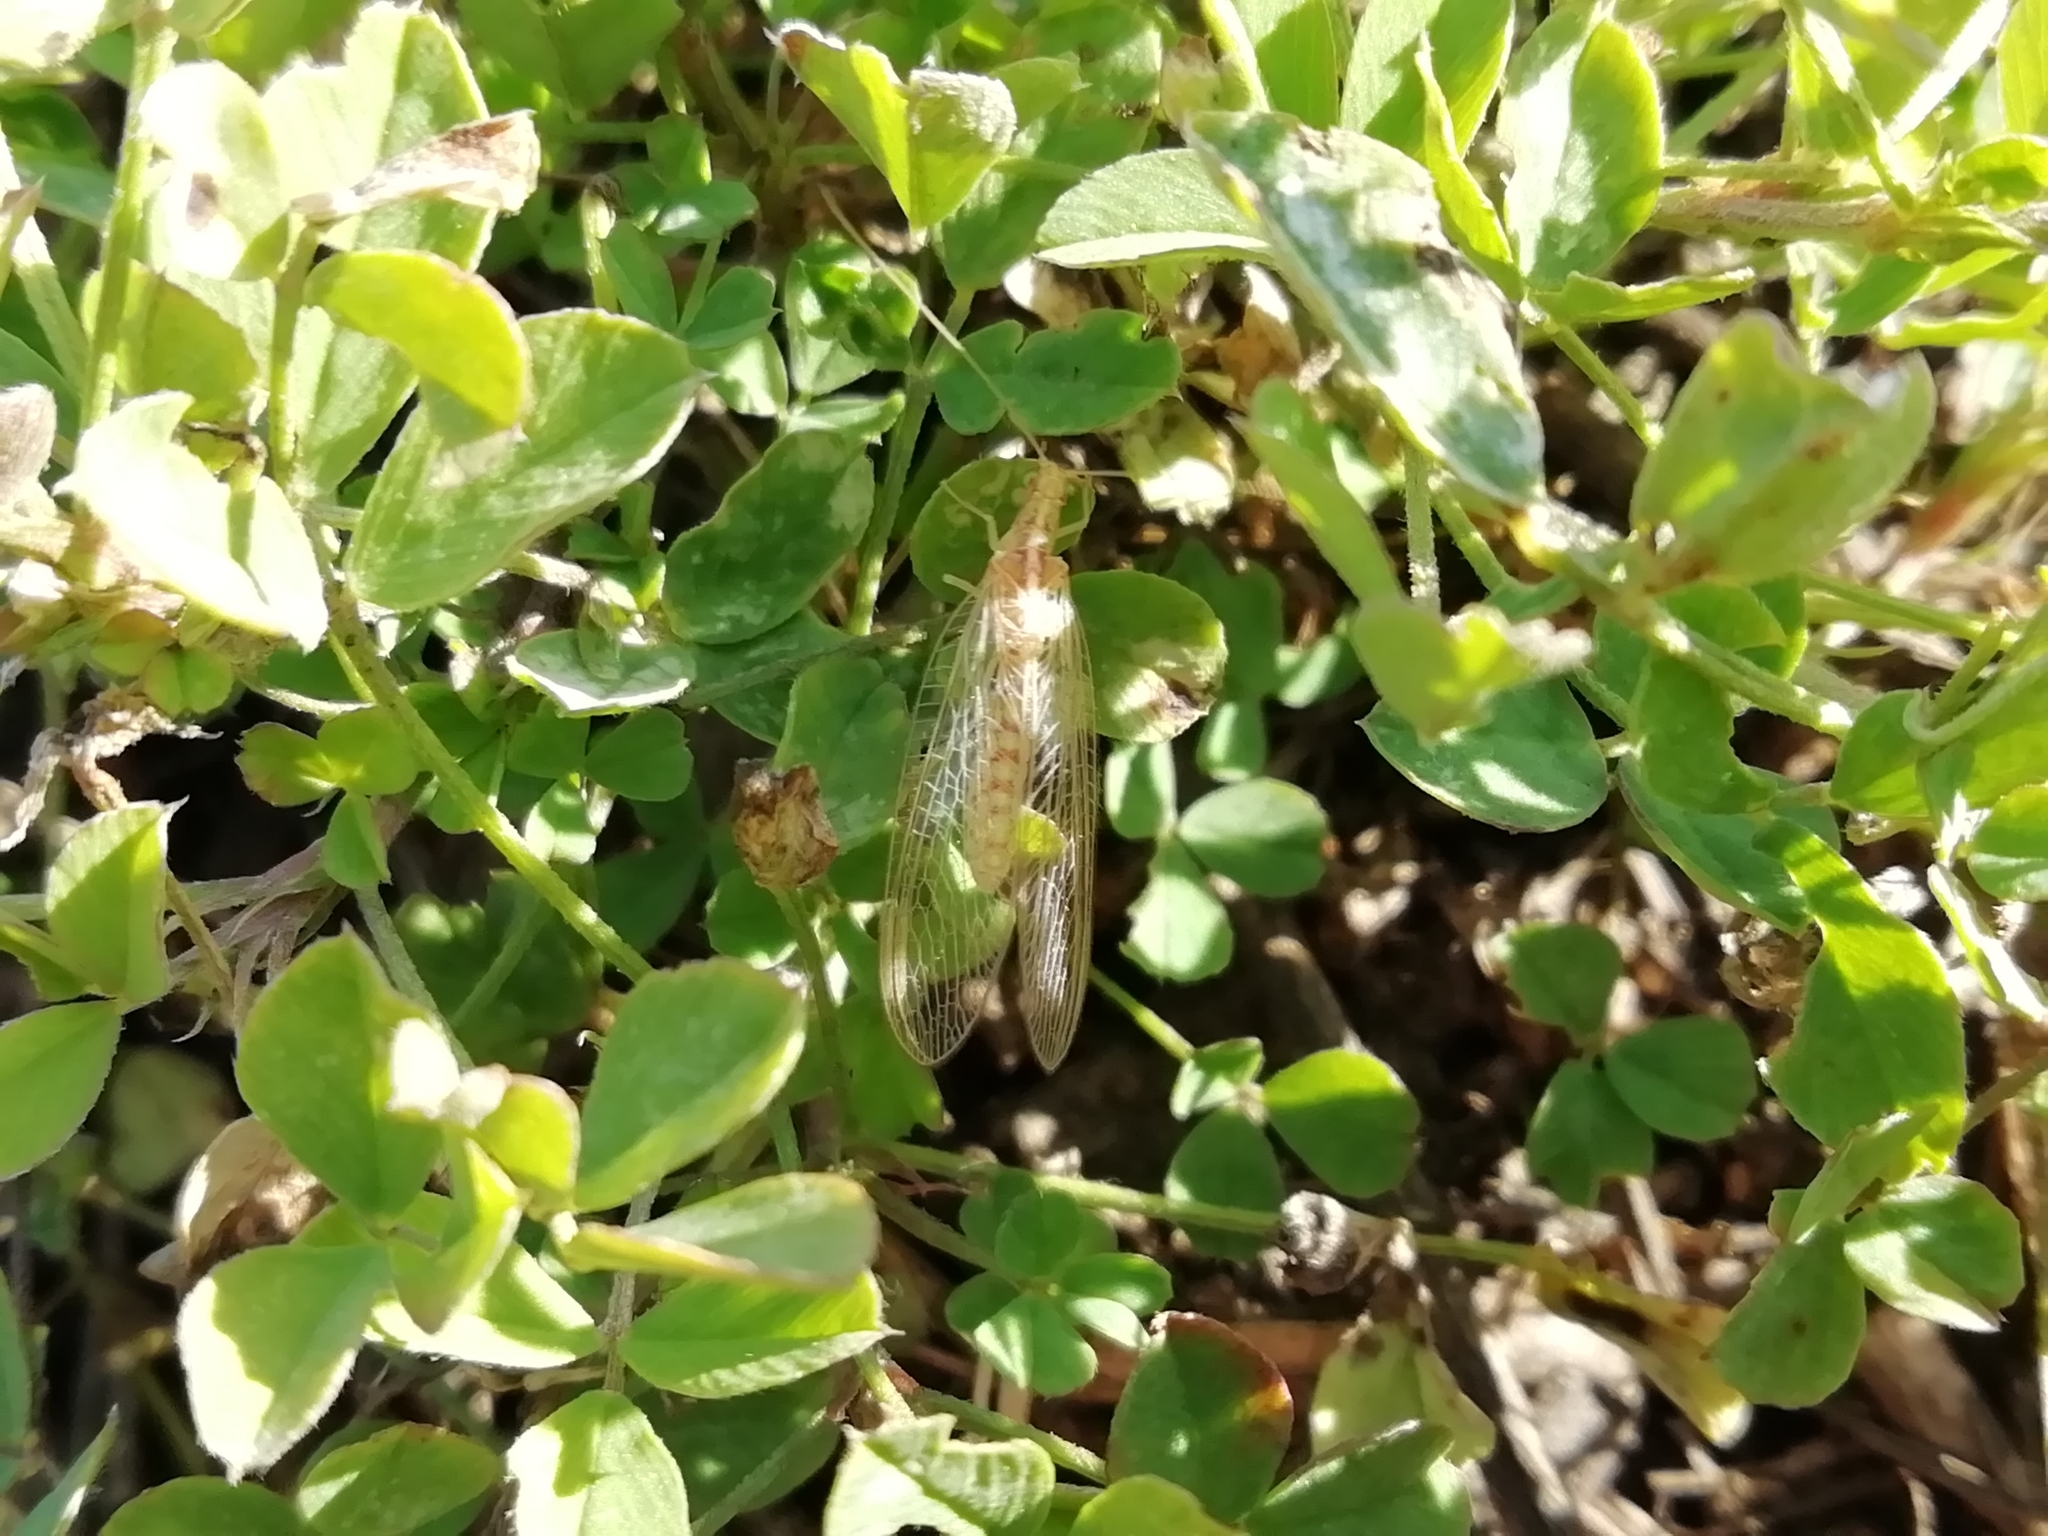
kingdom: Animalia
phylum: Arthropoda
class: Insecta
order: Neuroptera
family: Chrysopidae
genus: Chrysoperla
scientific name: Chrysoperla
